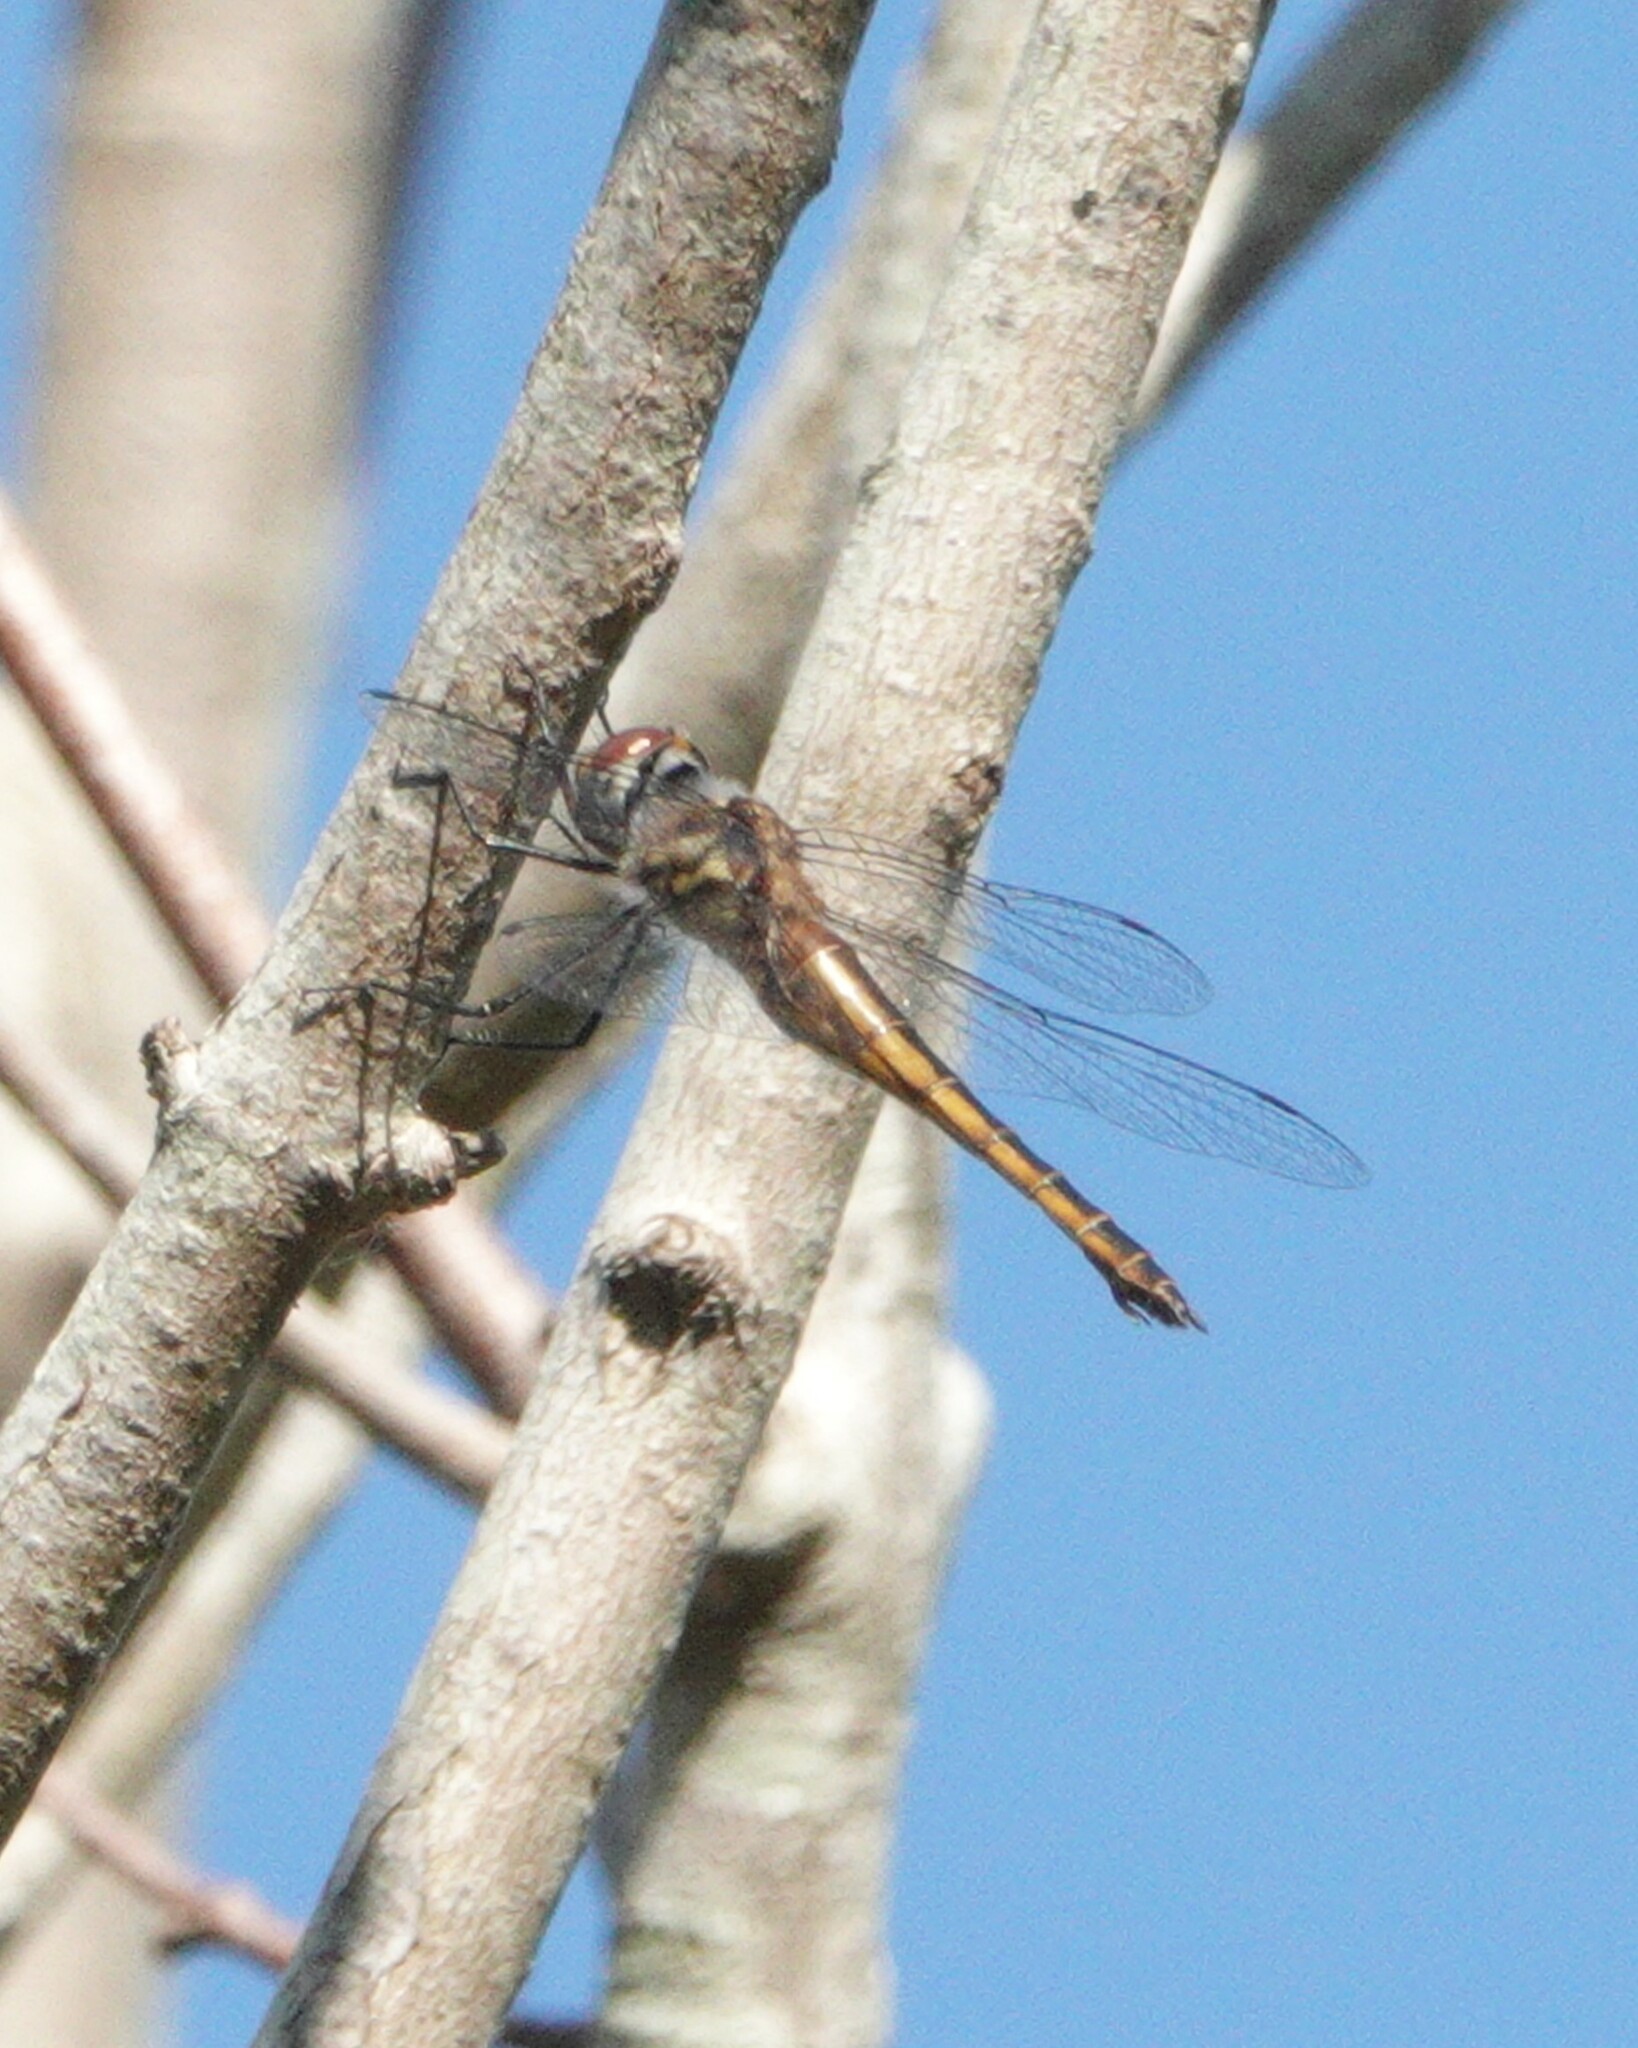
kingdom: Animalia
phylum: Arthropoda
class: Insecta
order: Odonata
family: Corduliidae
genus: Epitheca
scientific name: Epitheca sepia
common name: Sepia baskettail
